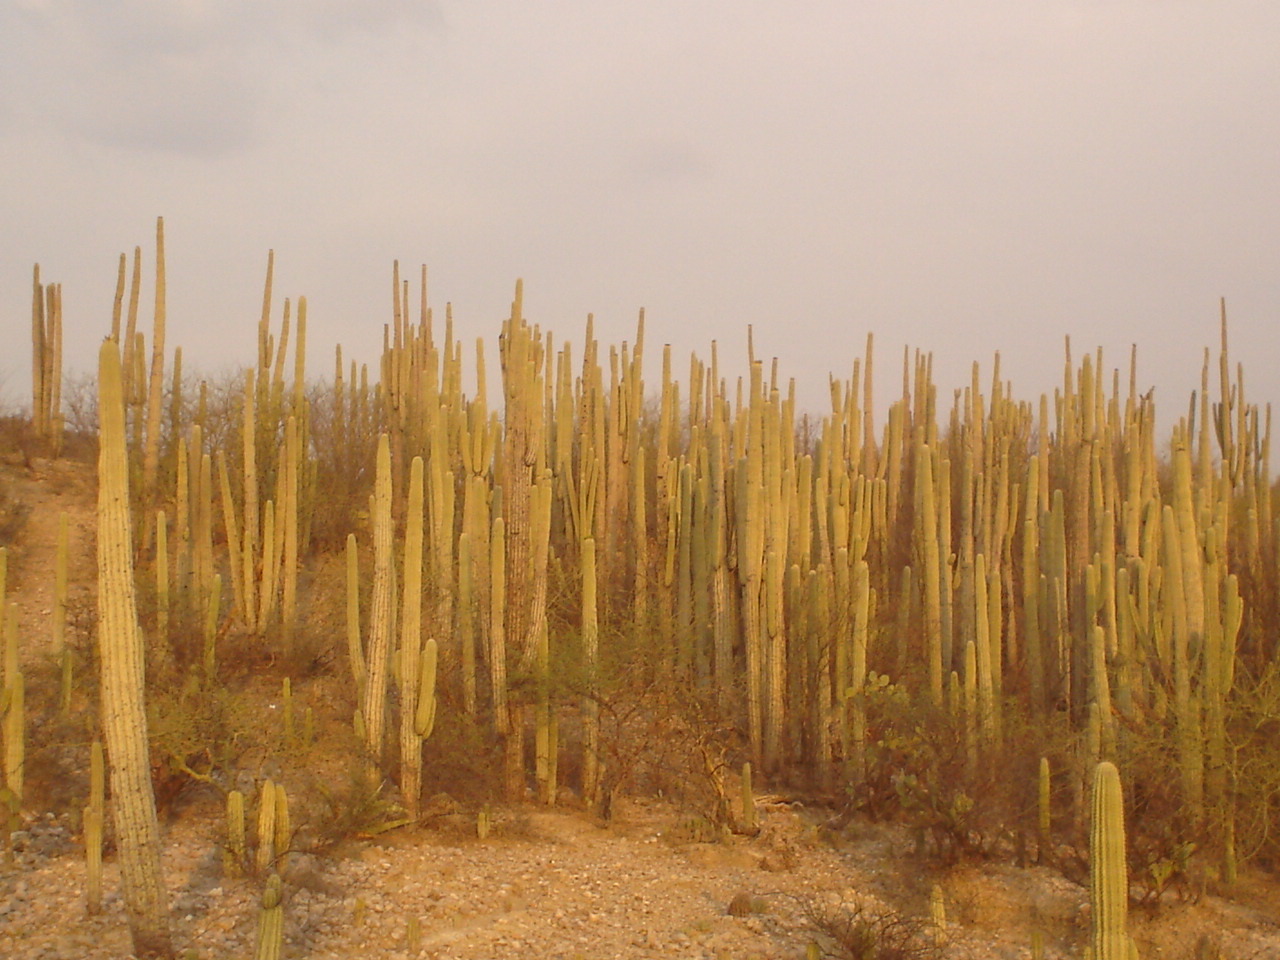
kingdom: Plantae
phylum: Tracheophyta
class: Magnoliopsida
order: Caryophyllales
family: Cactaceae
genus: Cephalocereus
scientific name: Cephalocereus tetetzo
